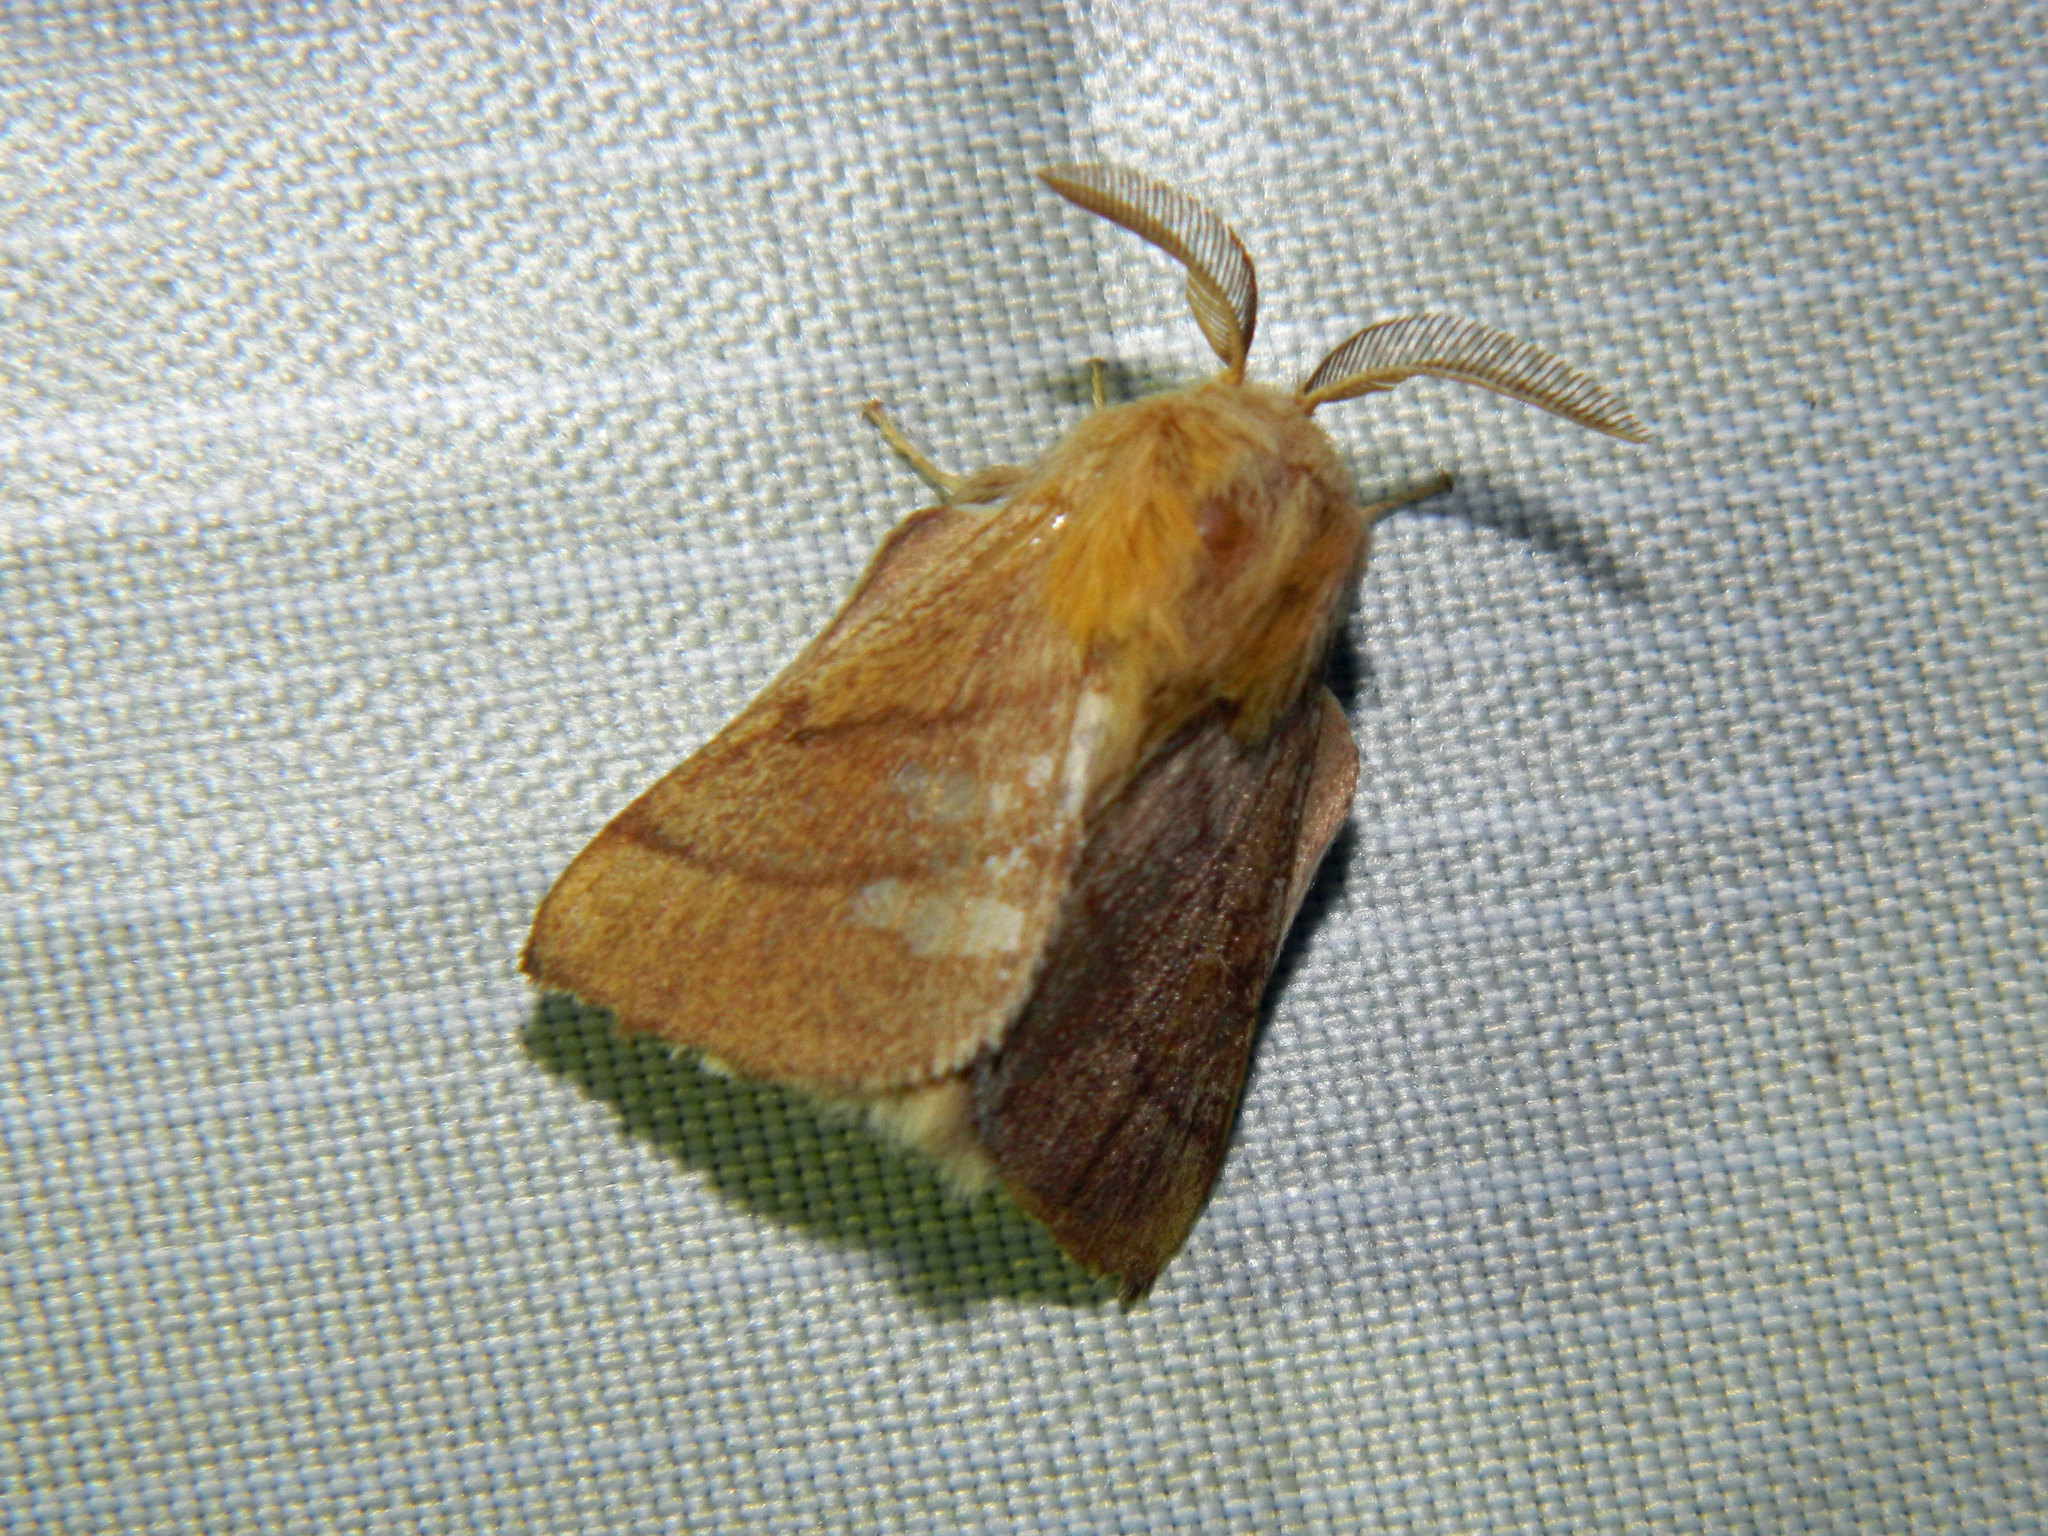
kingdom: Animalia
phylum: Arthropoda
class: Insecta
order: Lepidoptera
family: Lasiocampidae
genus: Malacosoma
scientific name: Malacosoma disstria
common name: Forest tent caterpillar
